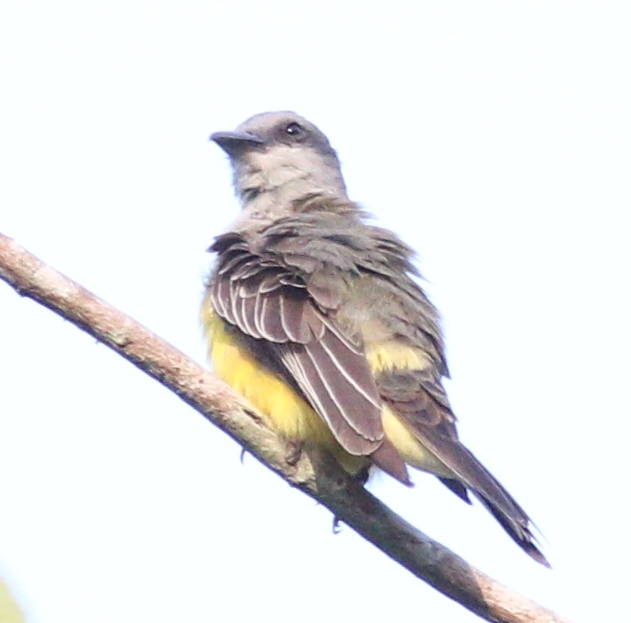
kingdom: Animalia
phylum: Chordata
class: Aves
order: Passeriformes
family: Tyrannidae
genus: Tyrannus
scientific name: Tyrannus melancholicus
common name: Tropical kingbird
